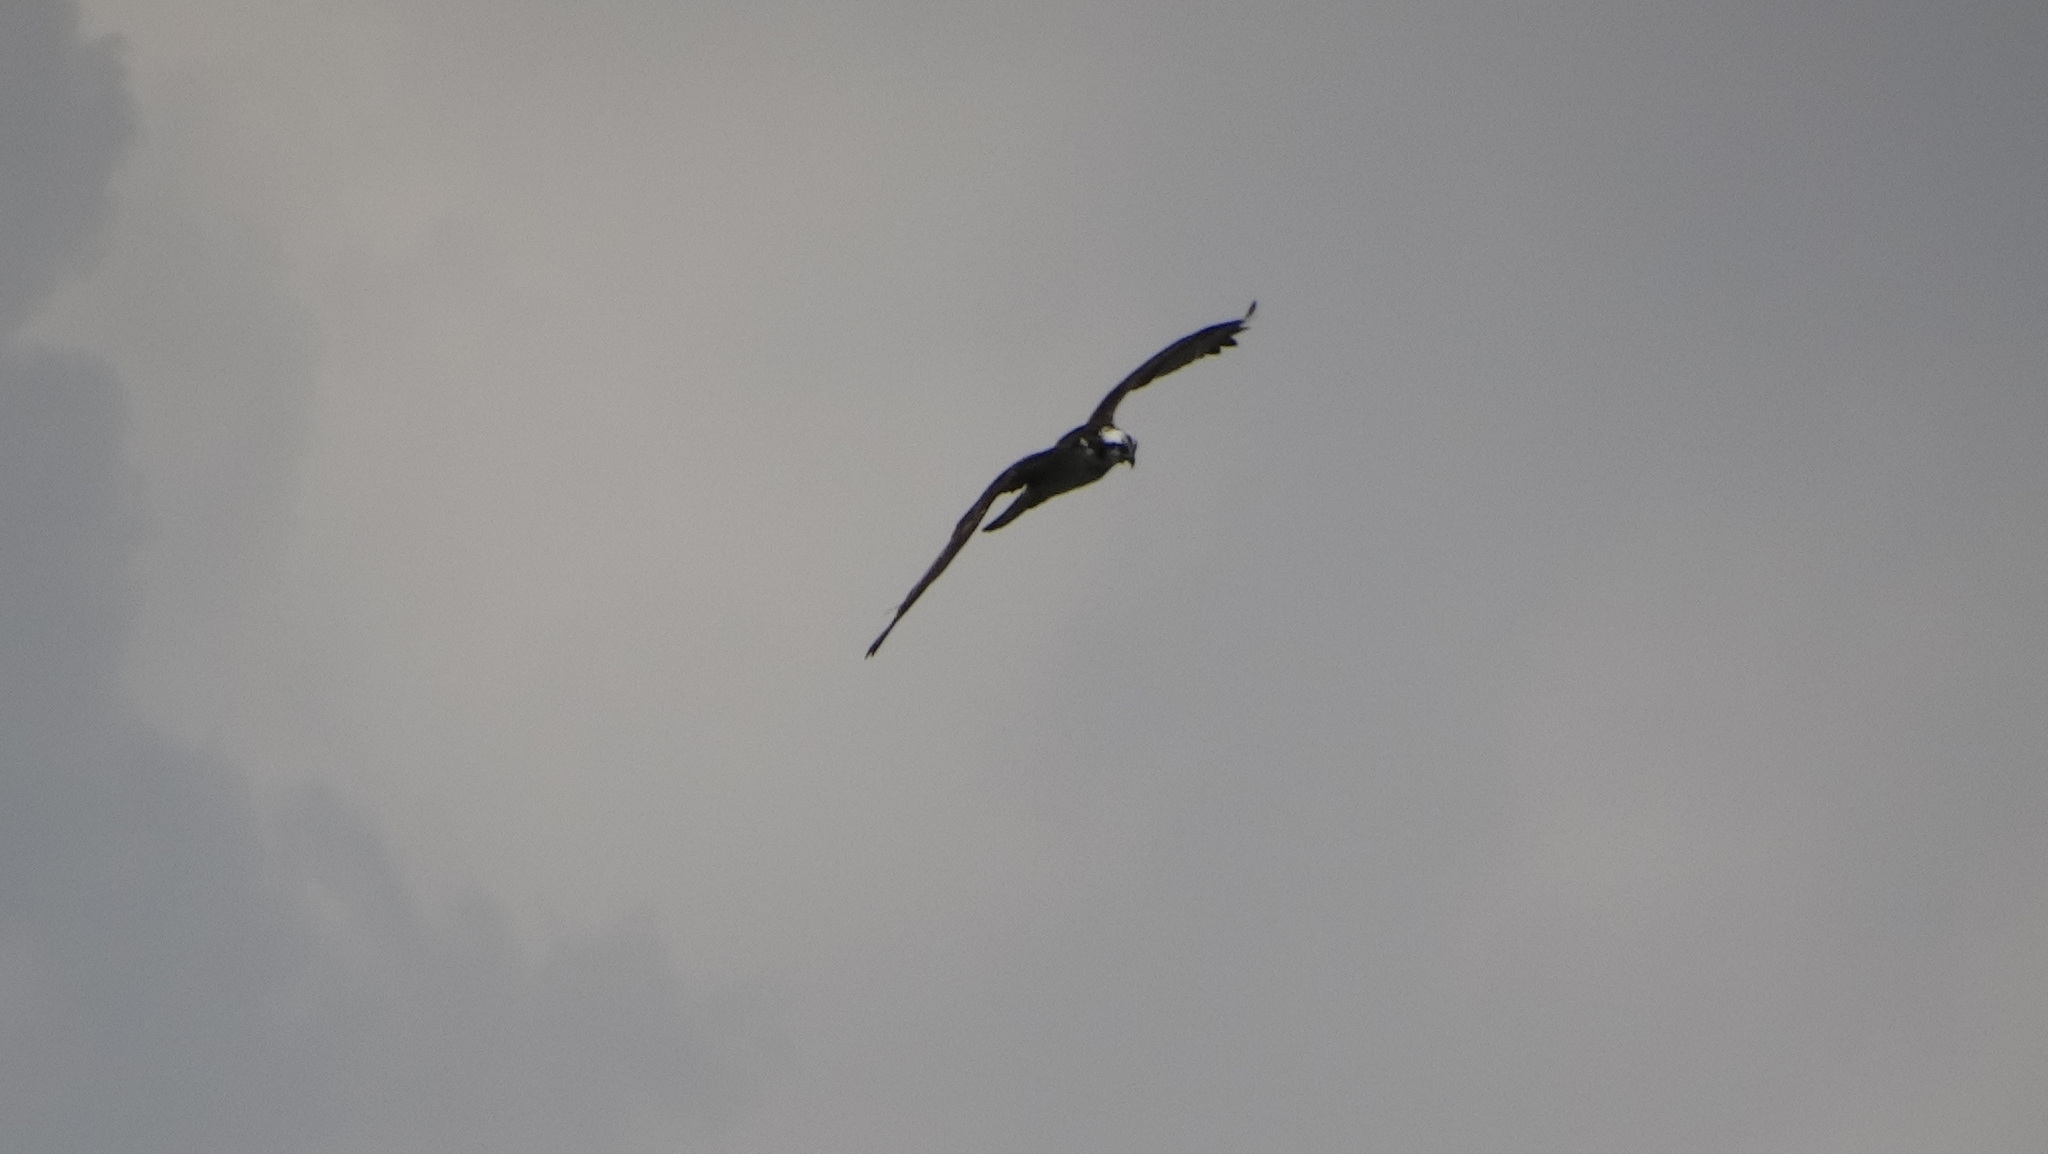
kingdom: Animalia
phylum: Chordata
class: Aves
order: Accipitriformes
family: Pandionidae
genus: Pandion
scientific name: Pandion haliaetus
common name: Osprey
